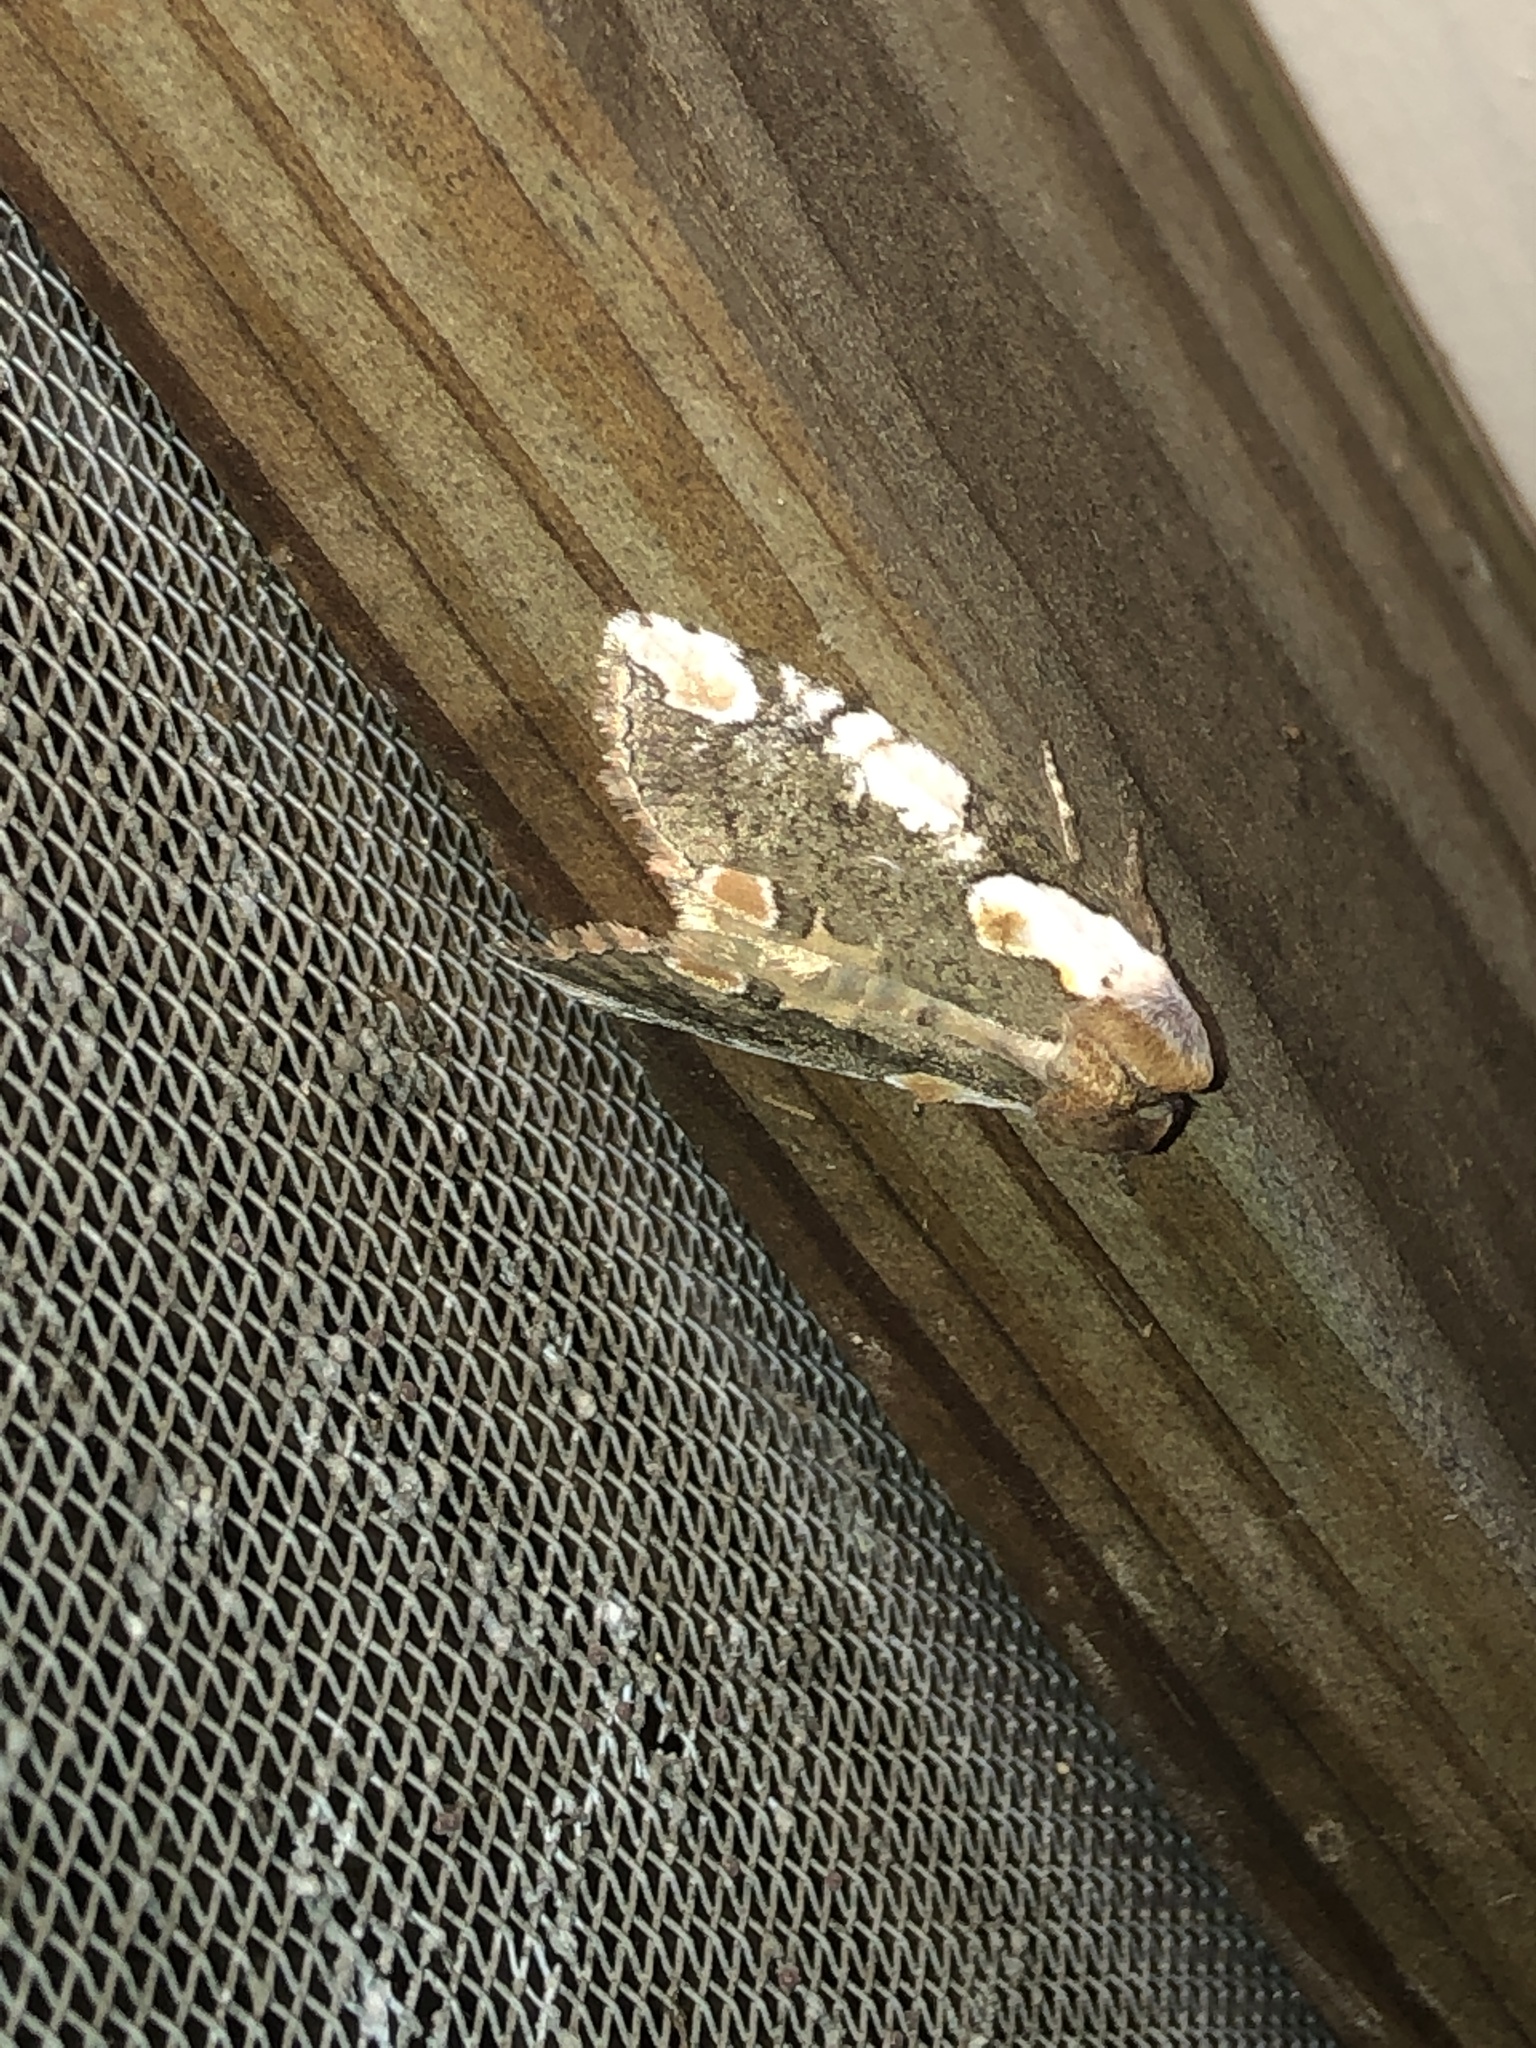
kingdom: Animalia
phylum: Arthropoda
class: Insecta
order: Lepidoptera
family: Drepanidae
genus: Euthyatira
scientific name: Euthyatira pudens
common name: Dogwood thyatirid moth
